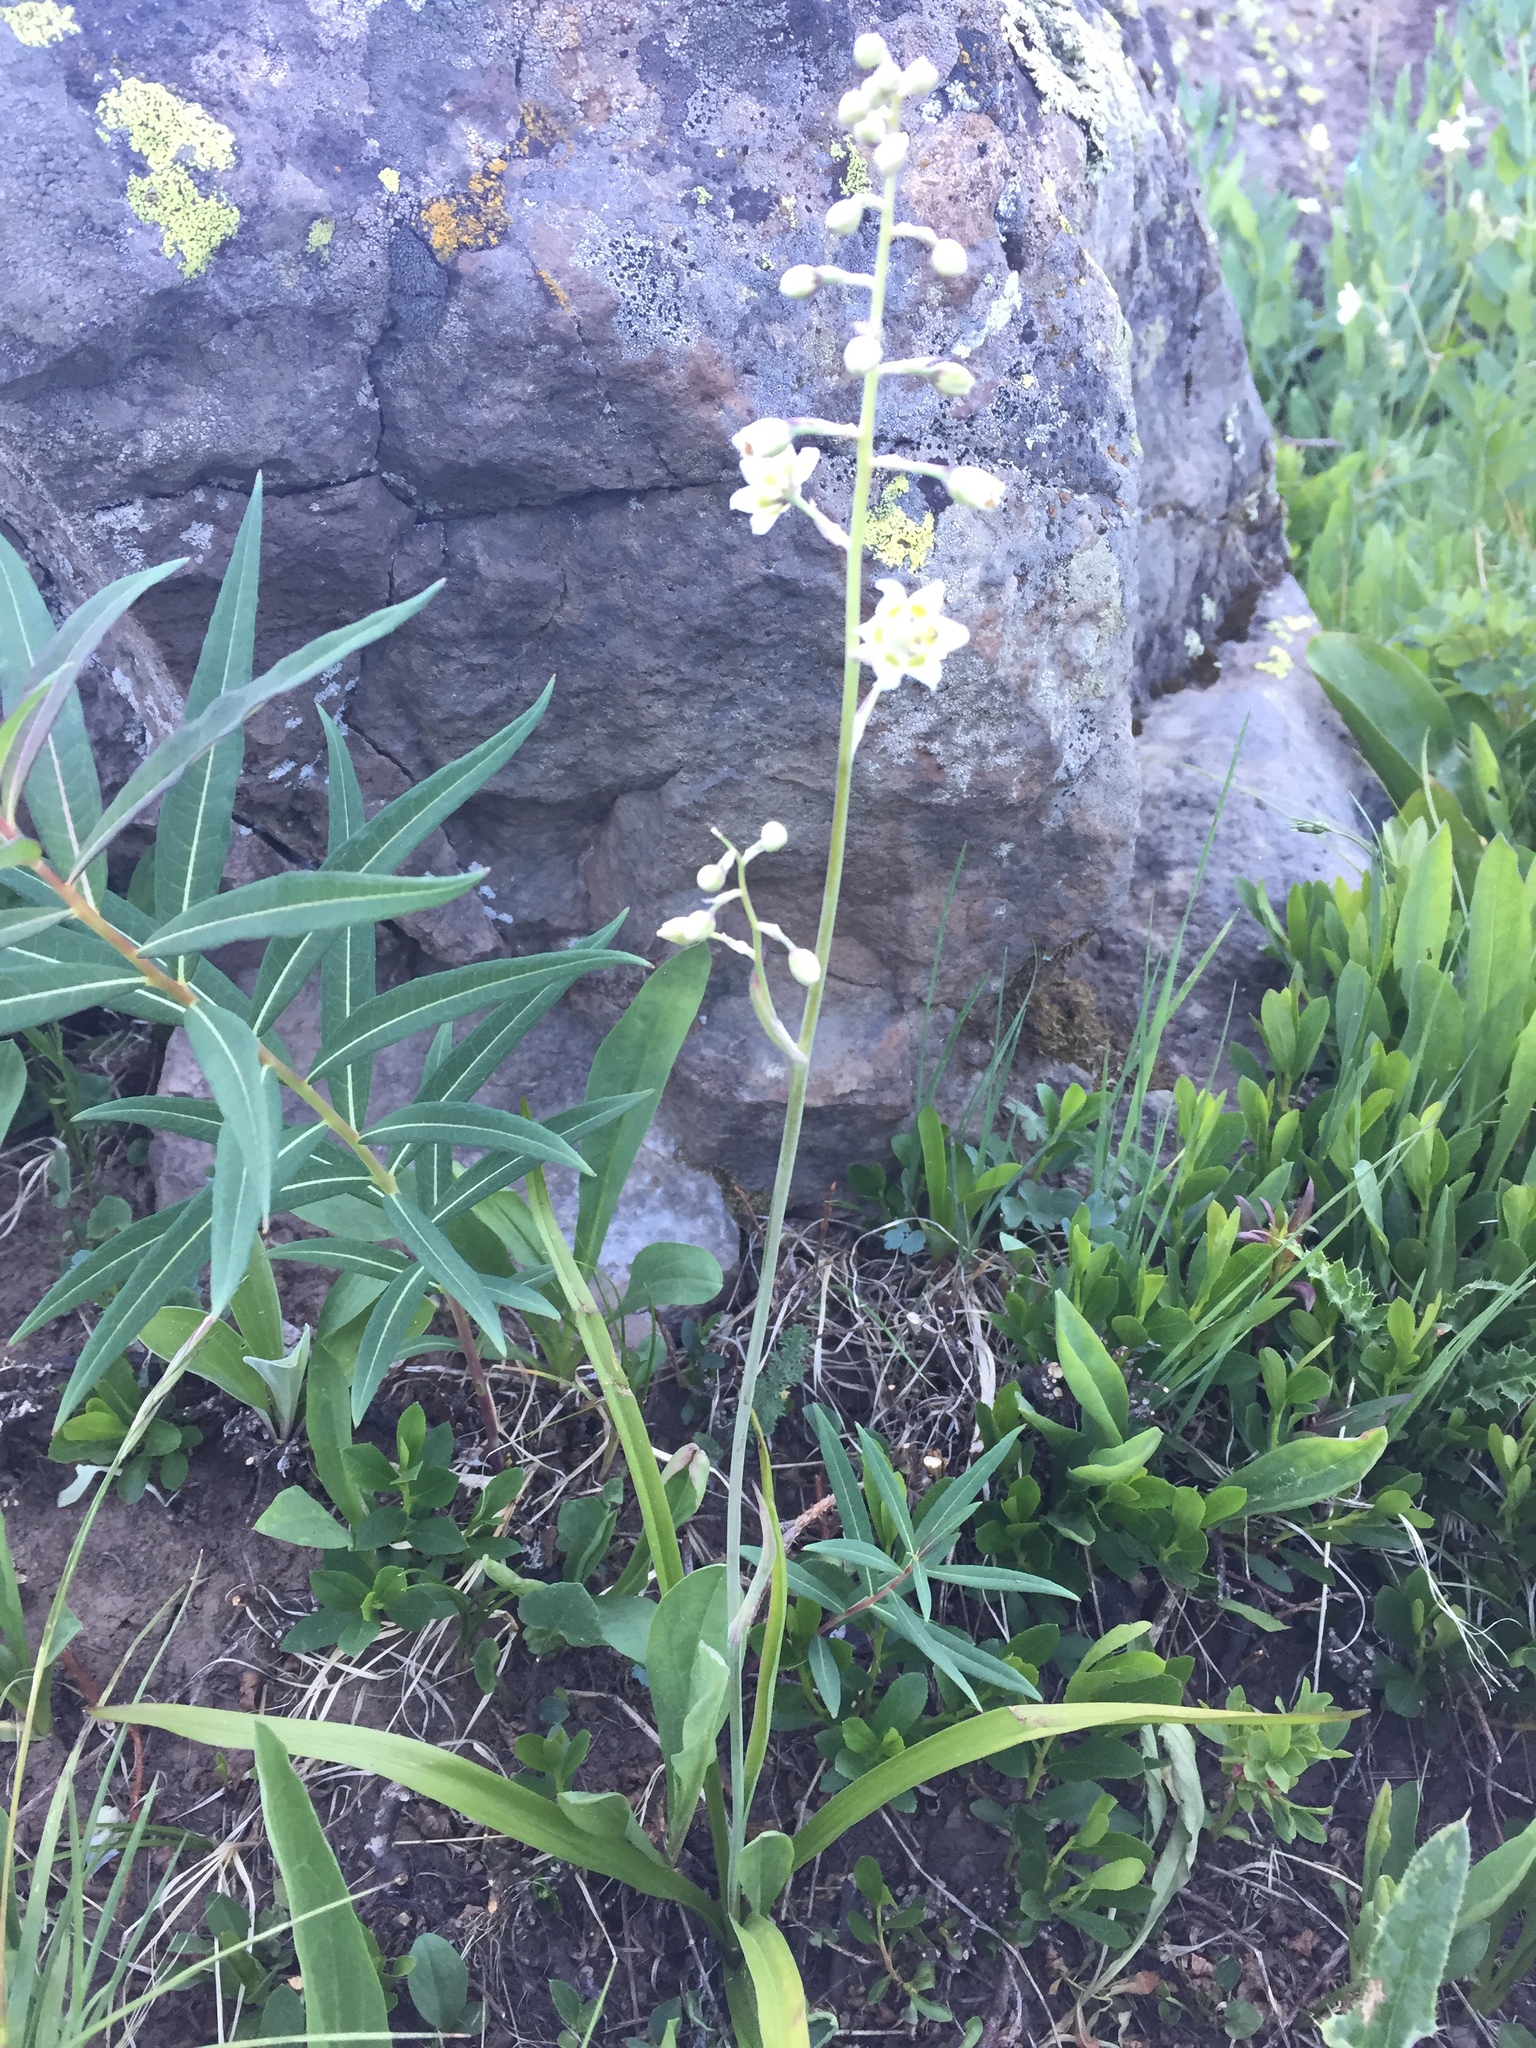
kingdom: Plantae
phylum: Tracheophyta
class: Liliopsida
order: Liliales
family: Melanthiaceae
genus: Anticlea
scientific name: Anticlea elegans
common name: Mountain death camas
